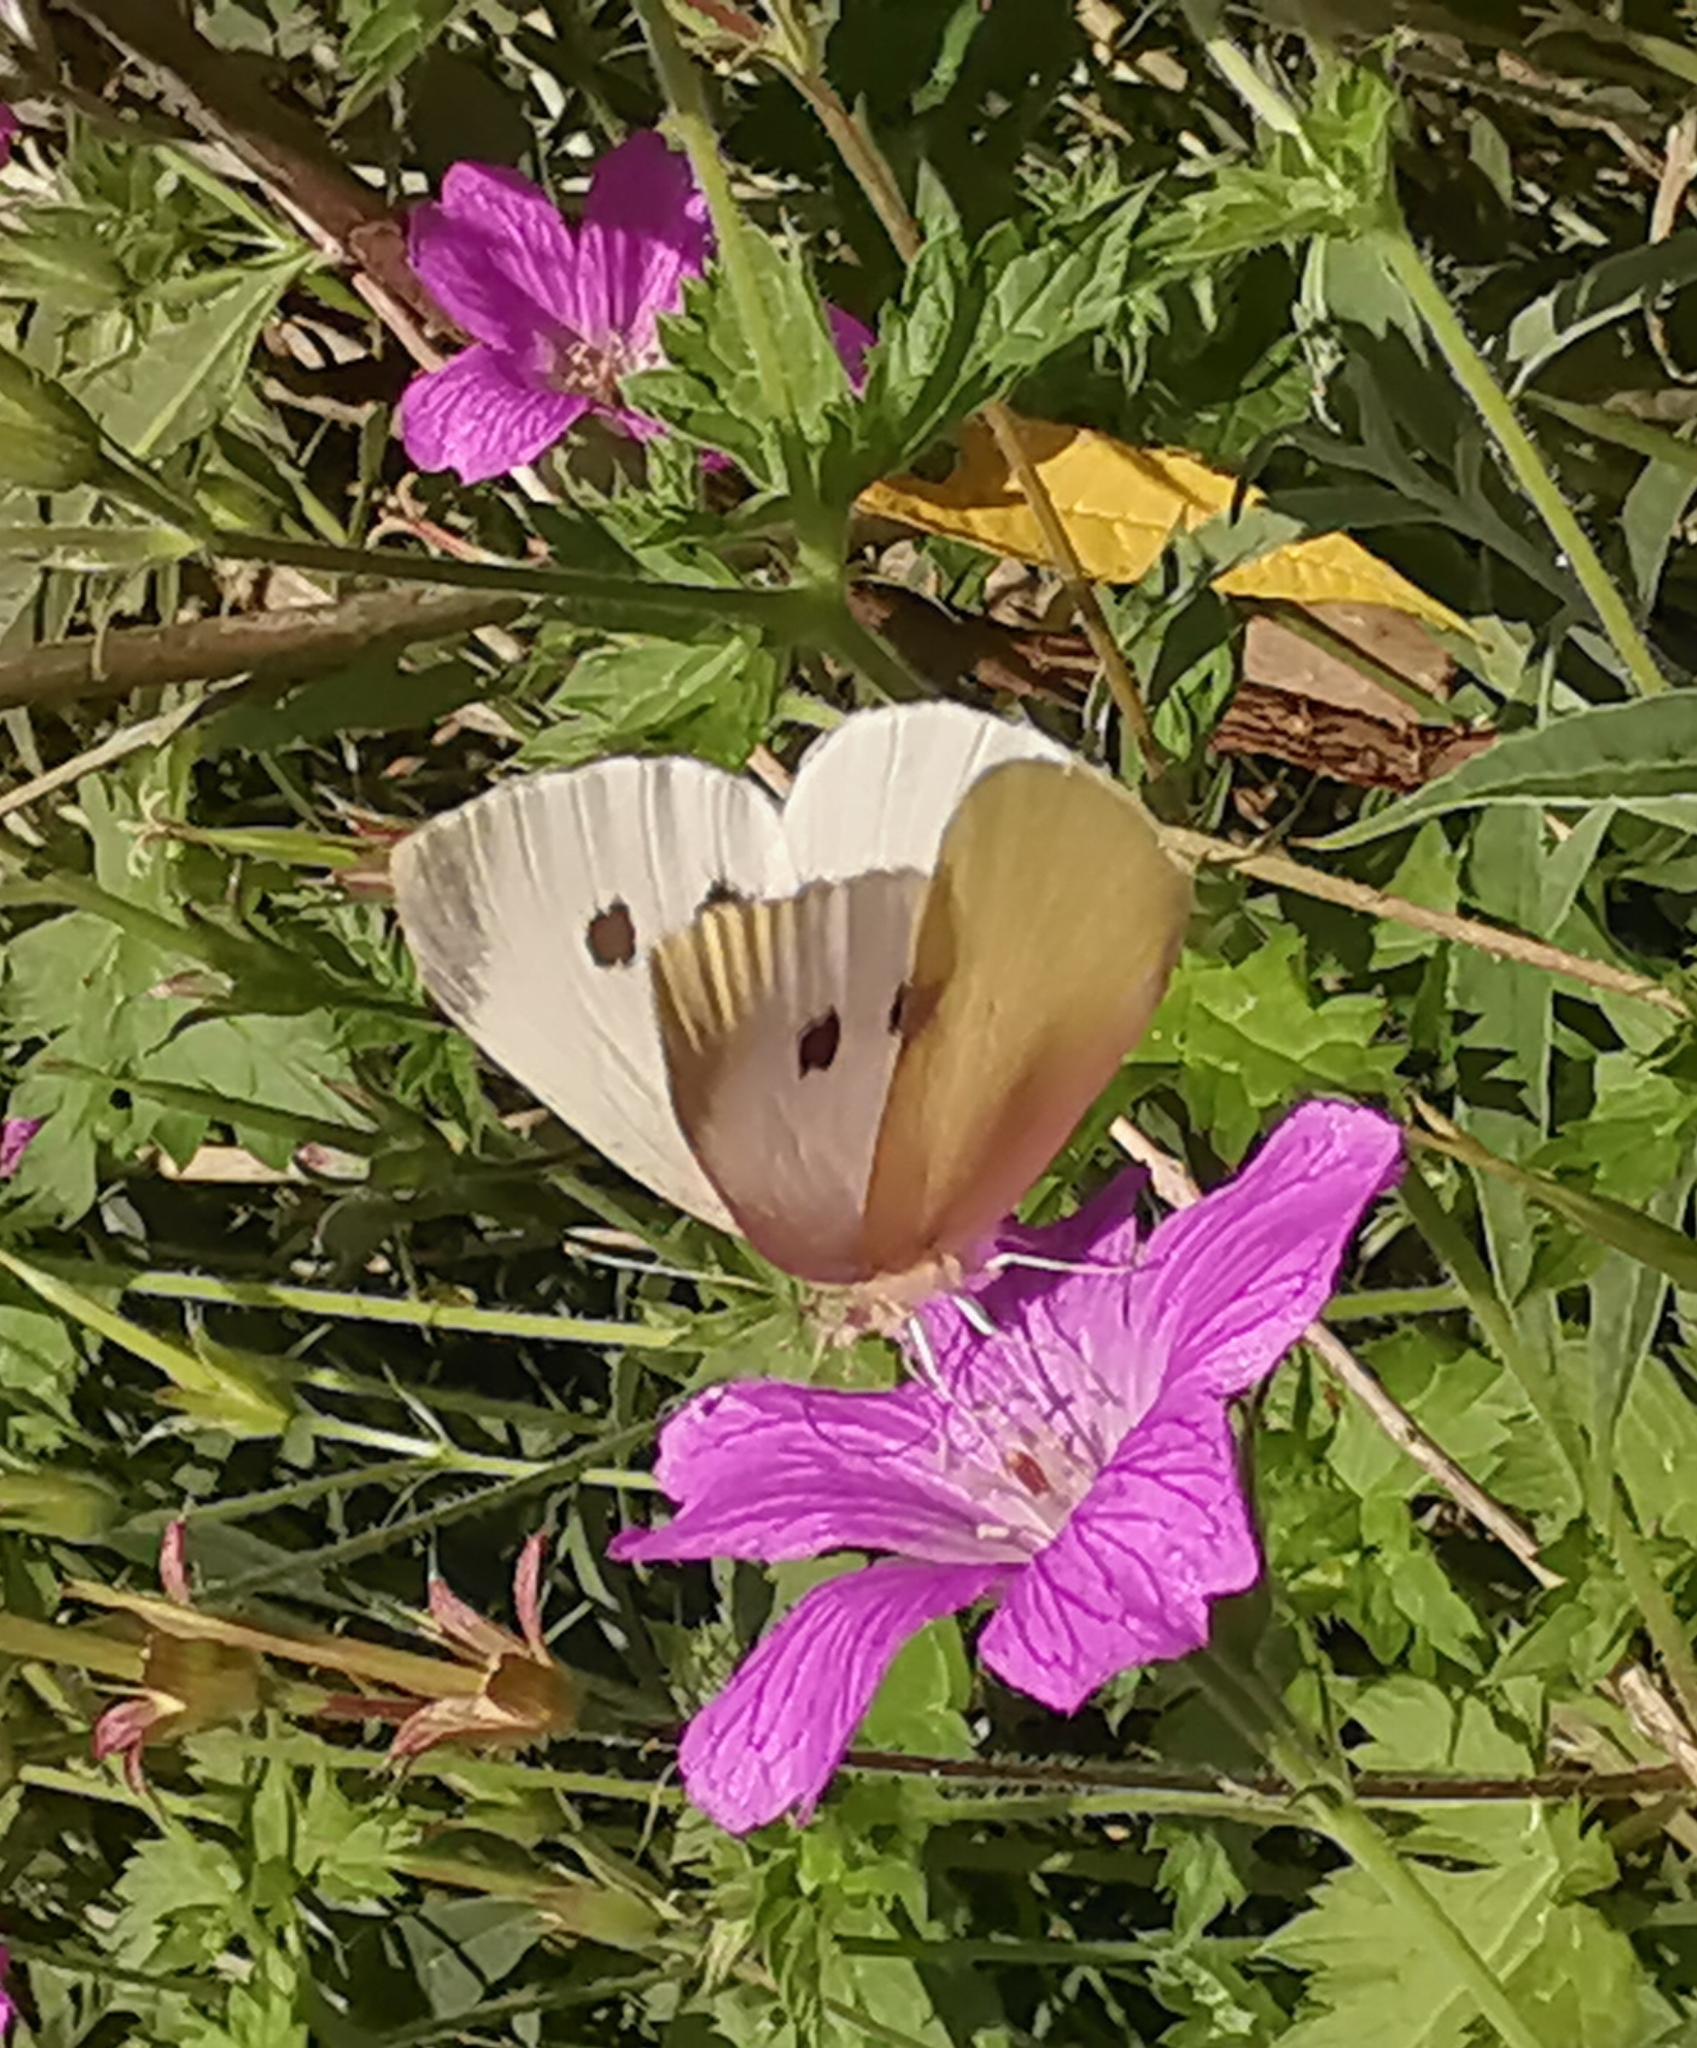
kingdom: Animalia
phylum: Arthropoda
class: Insecta
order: Lepidoptera
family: Pieridae
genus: Pieris
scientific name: Pieris rapae
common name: Small white
